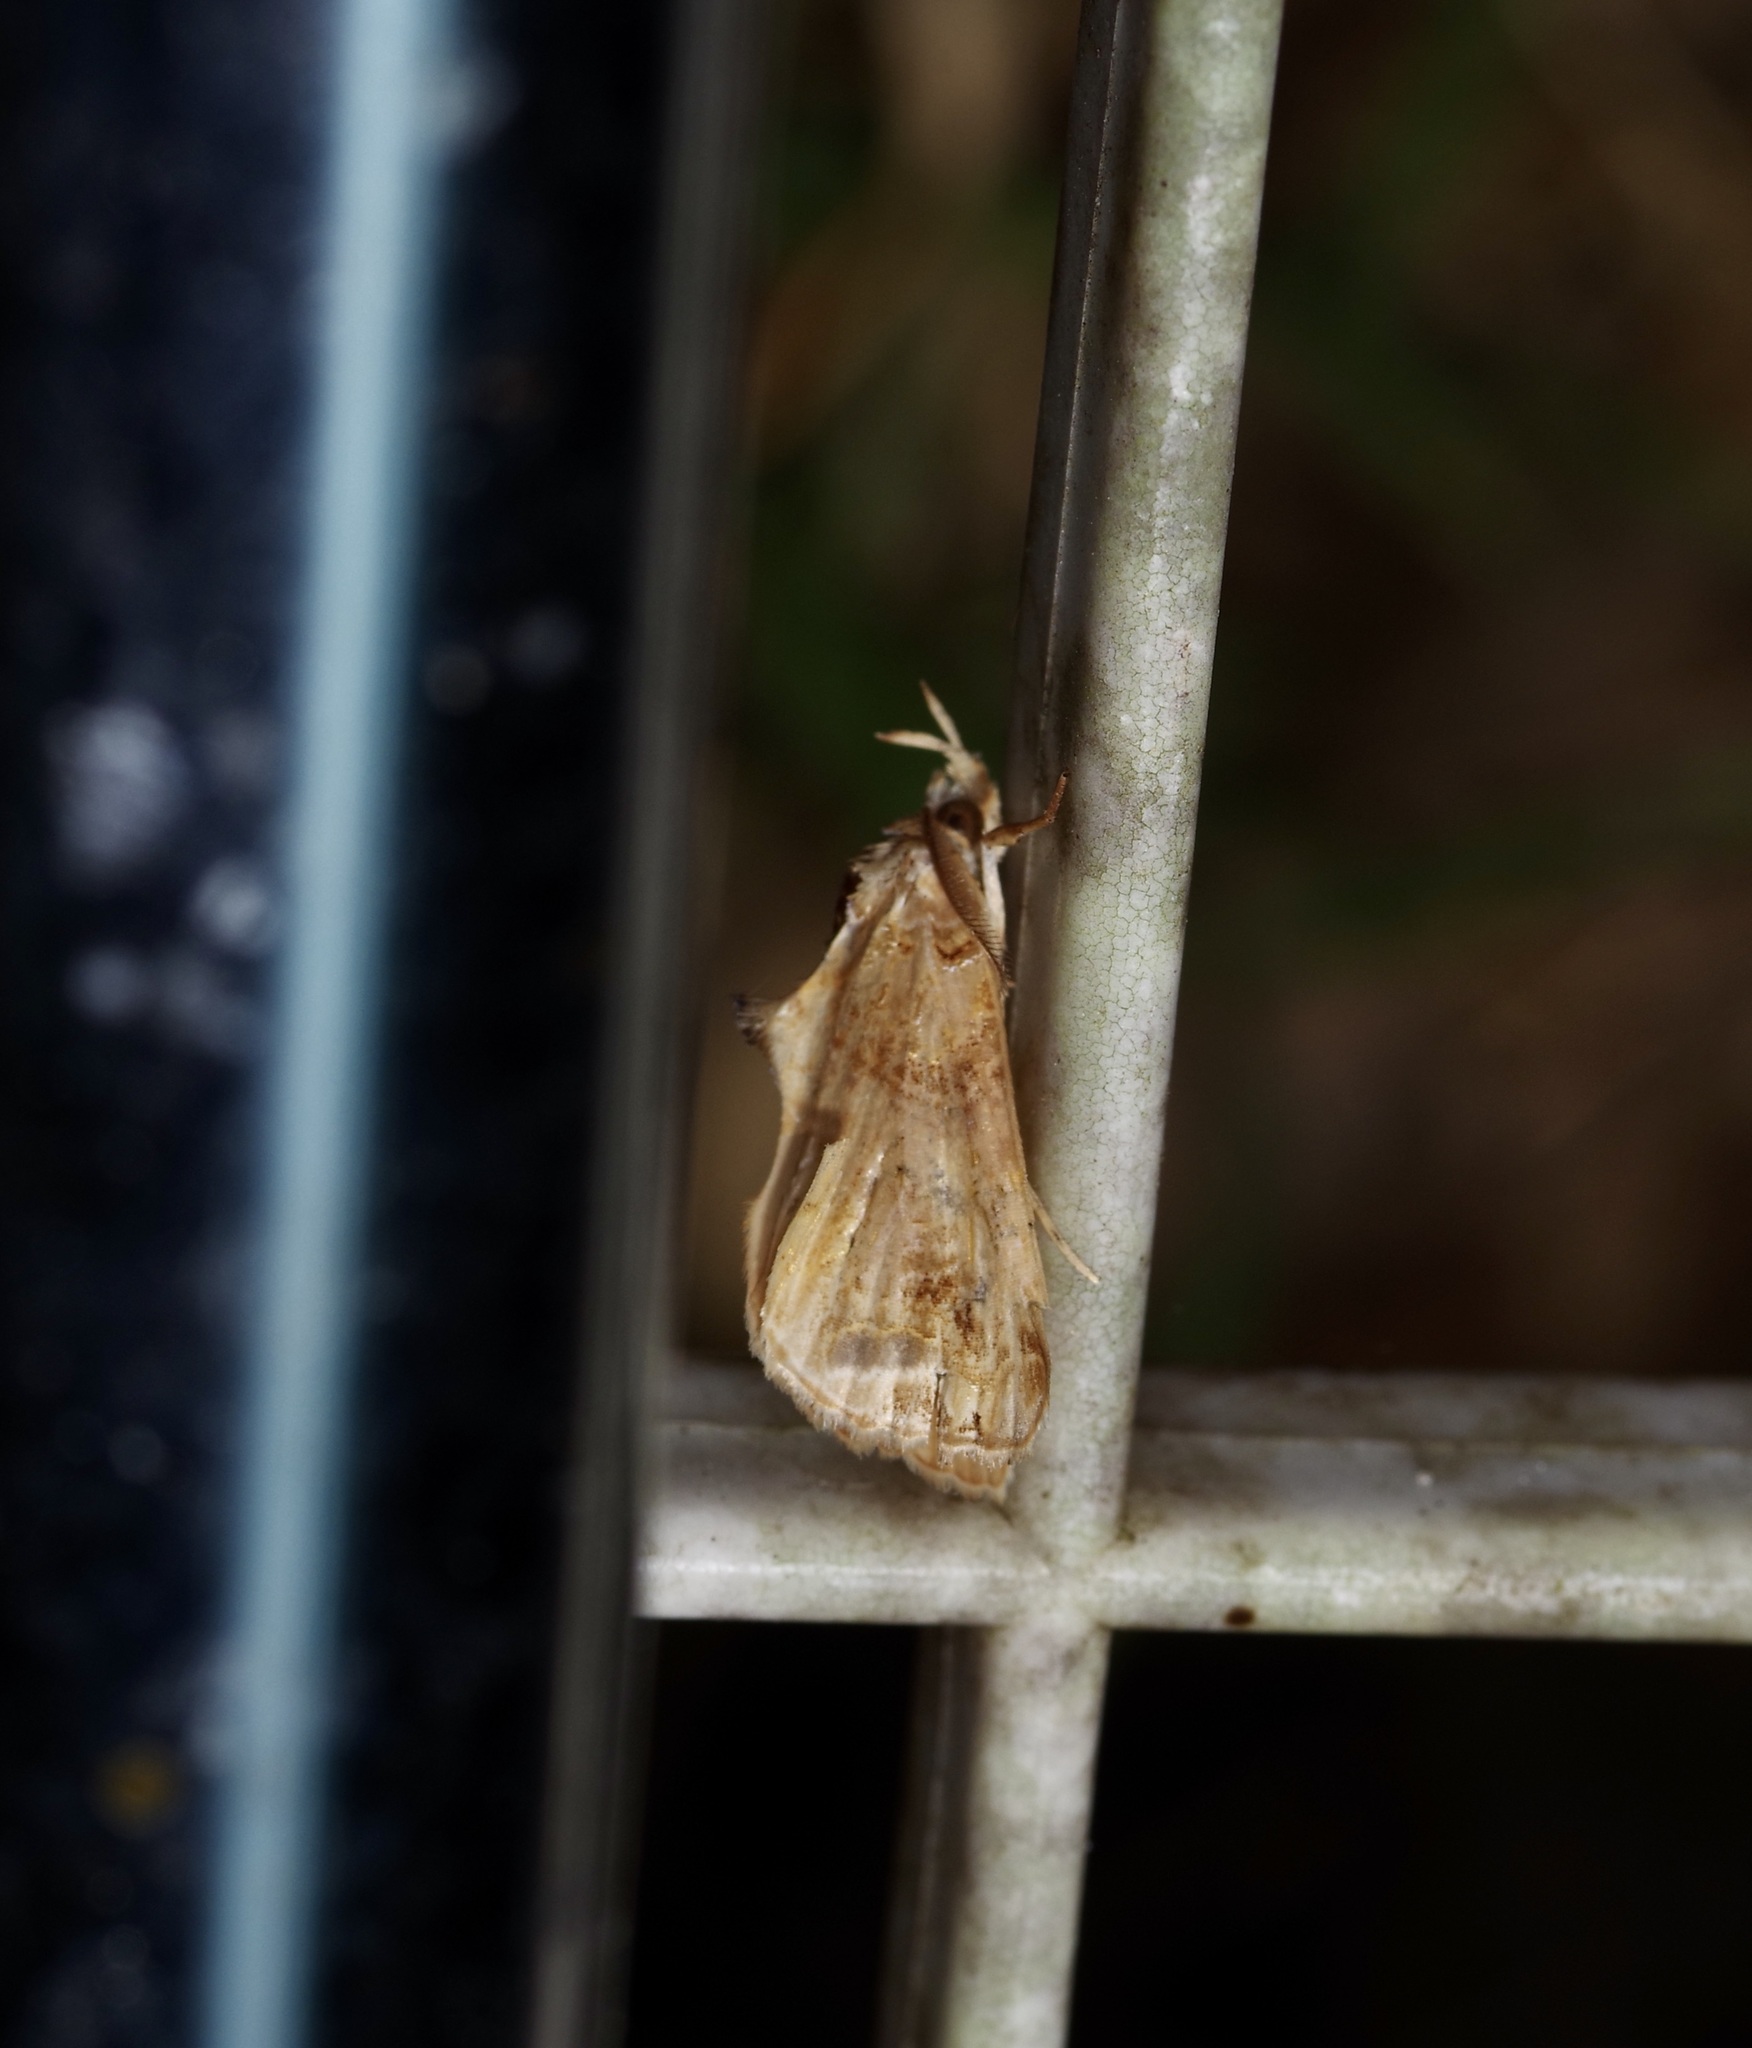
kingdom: Animalia
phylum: Arthropoda
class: Insecta
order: Lepidoptera
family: Erebidae
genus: Plusiodonta
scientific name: Plusiodonta compressipalpis
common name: Moonseed moth
